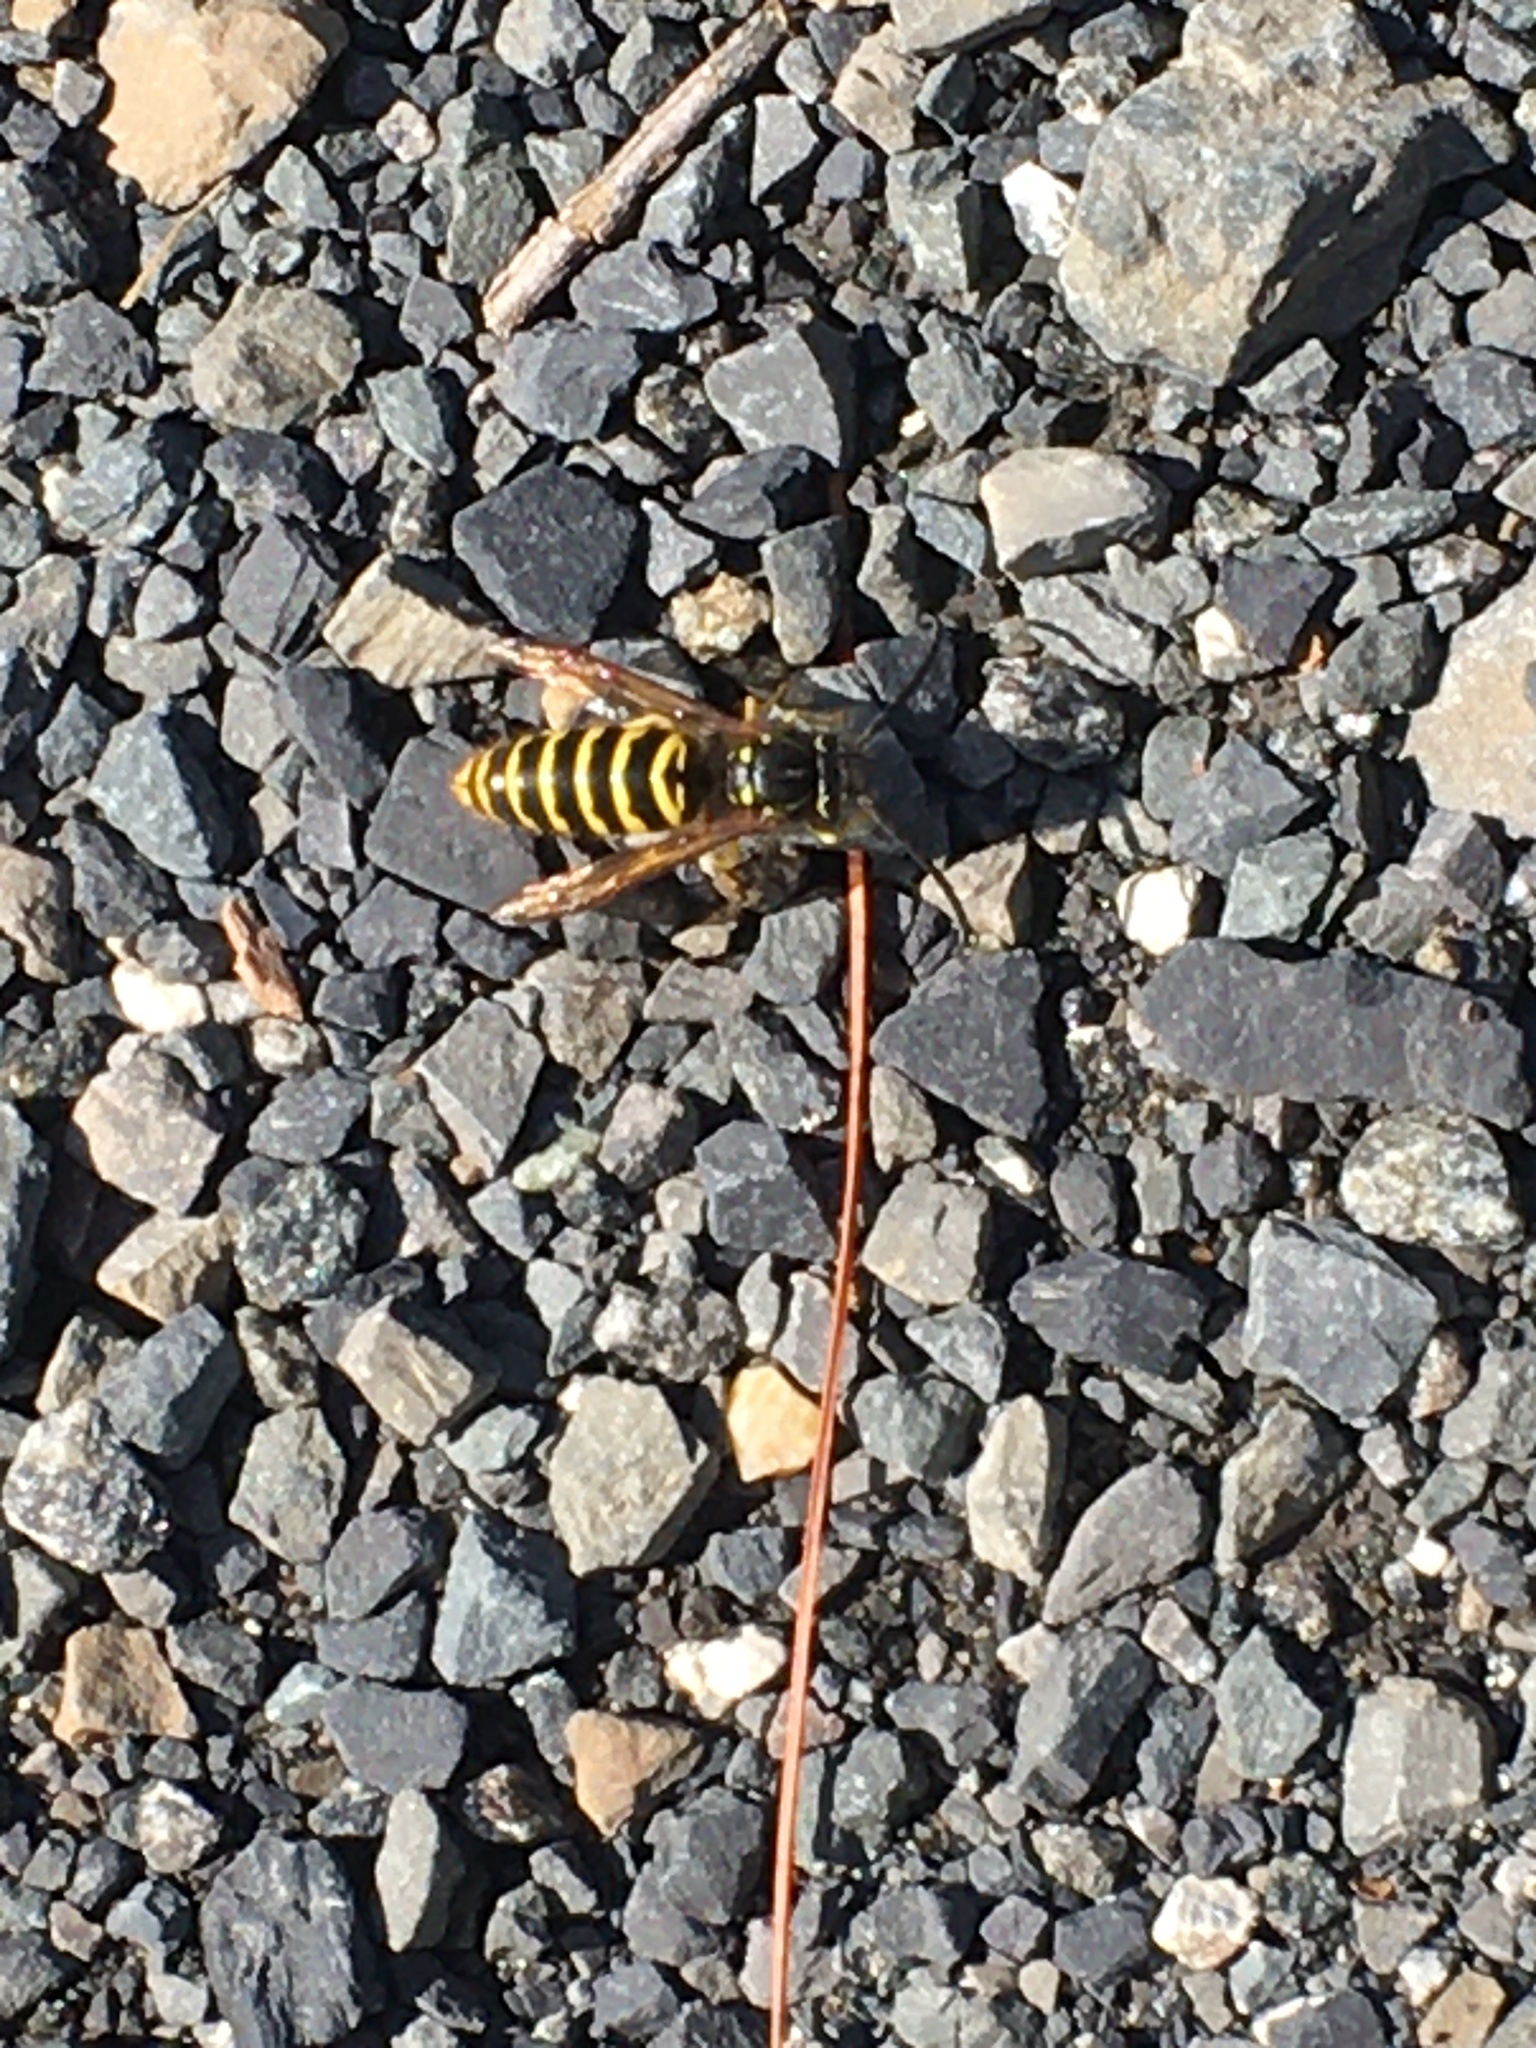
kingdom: Animalia
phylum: Arthropoda
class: Insecta
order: Hymenoptera
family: Vespidae
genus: Vespula
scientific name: Vespula maculifrons
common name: Eastern yellowjacket
